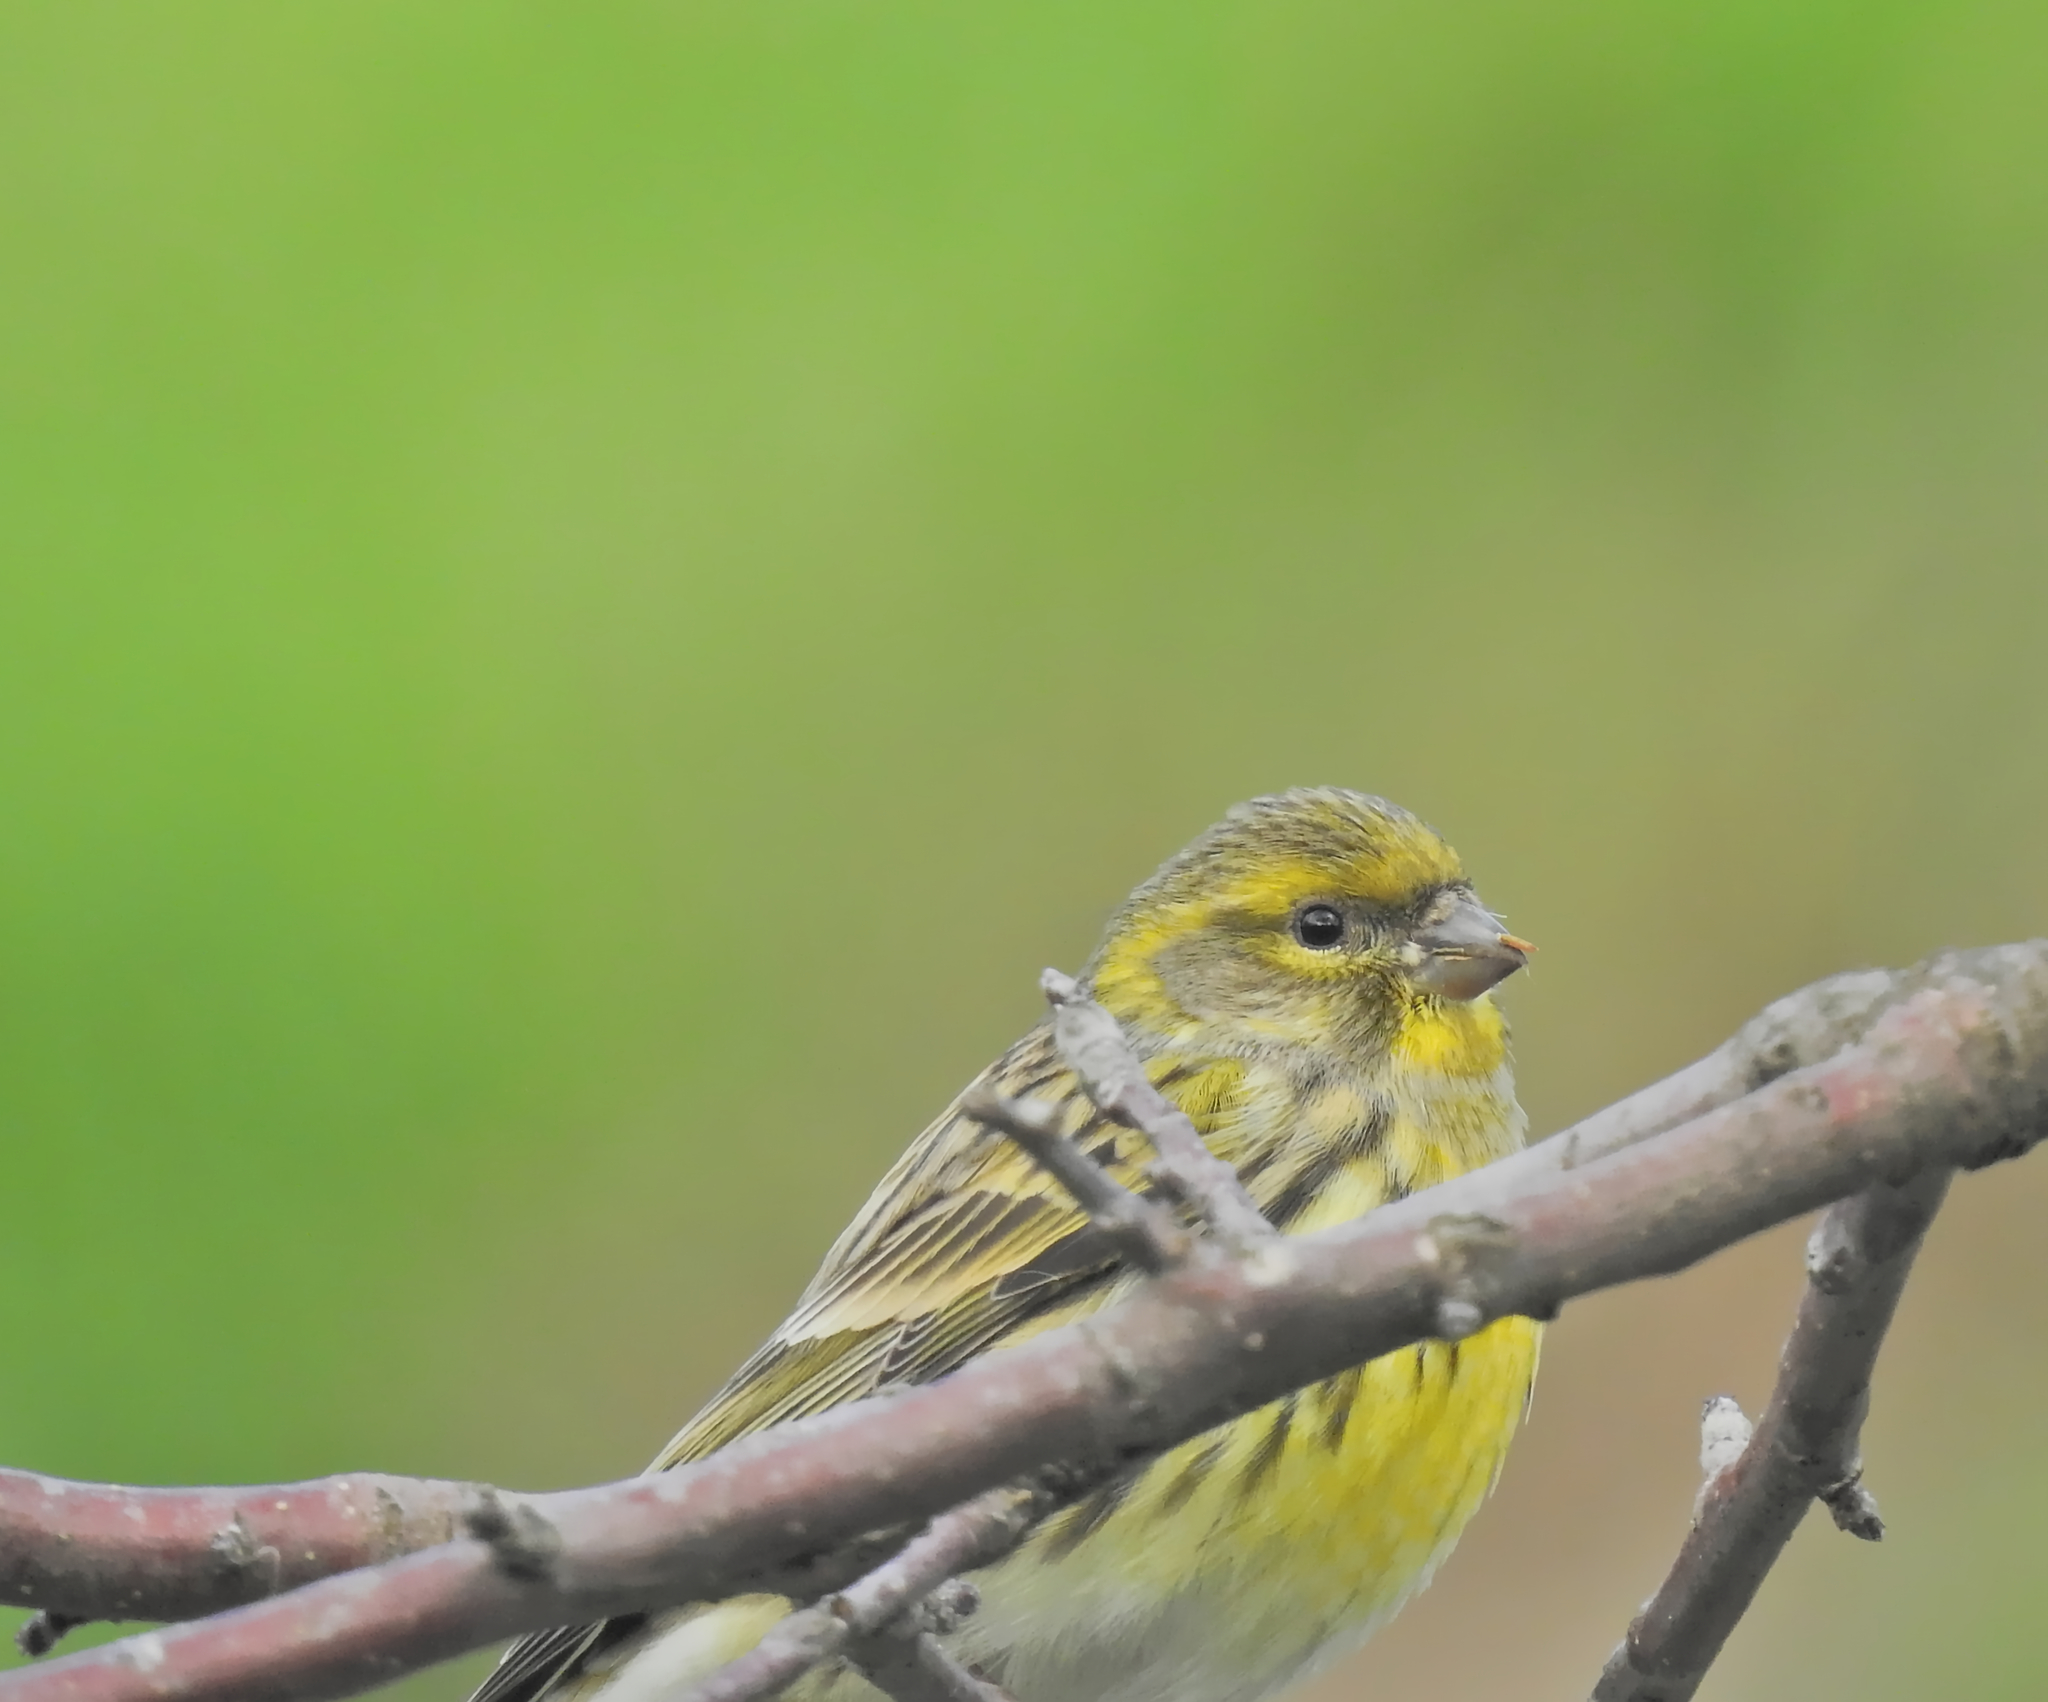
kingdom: Animalia
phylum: Chordata
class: Aves
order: Passeriformes
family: Fringillidae
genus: Serinus
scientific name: Serinus serinus
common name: European serin
